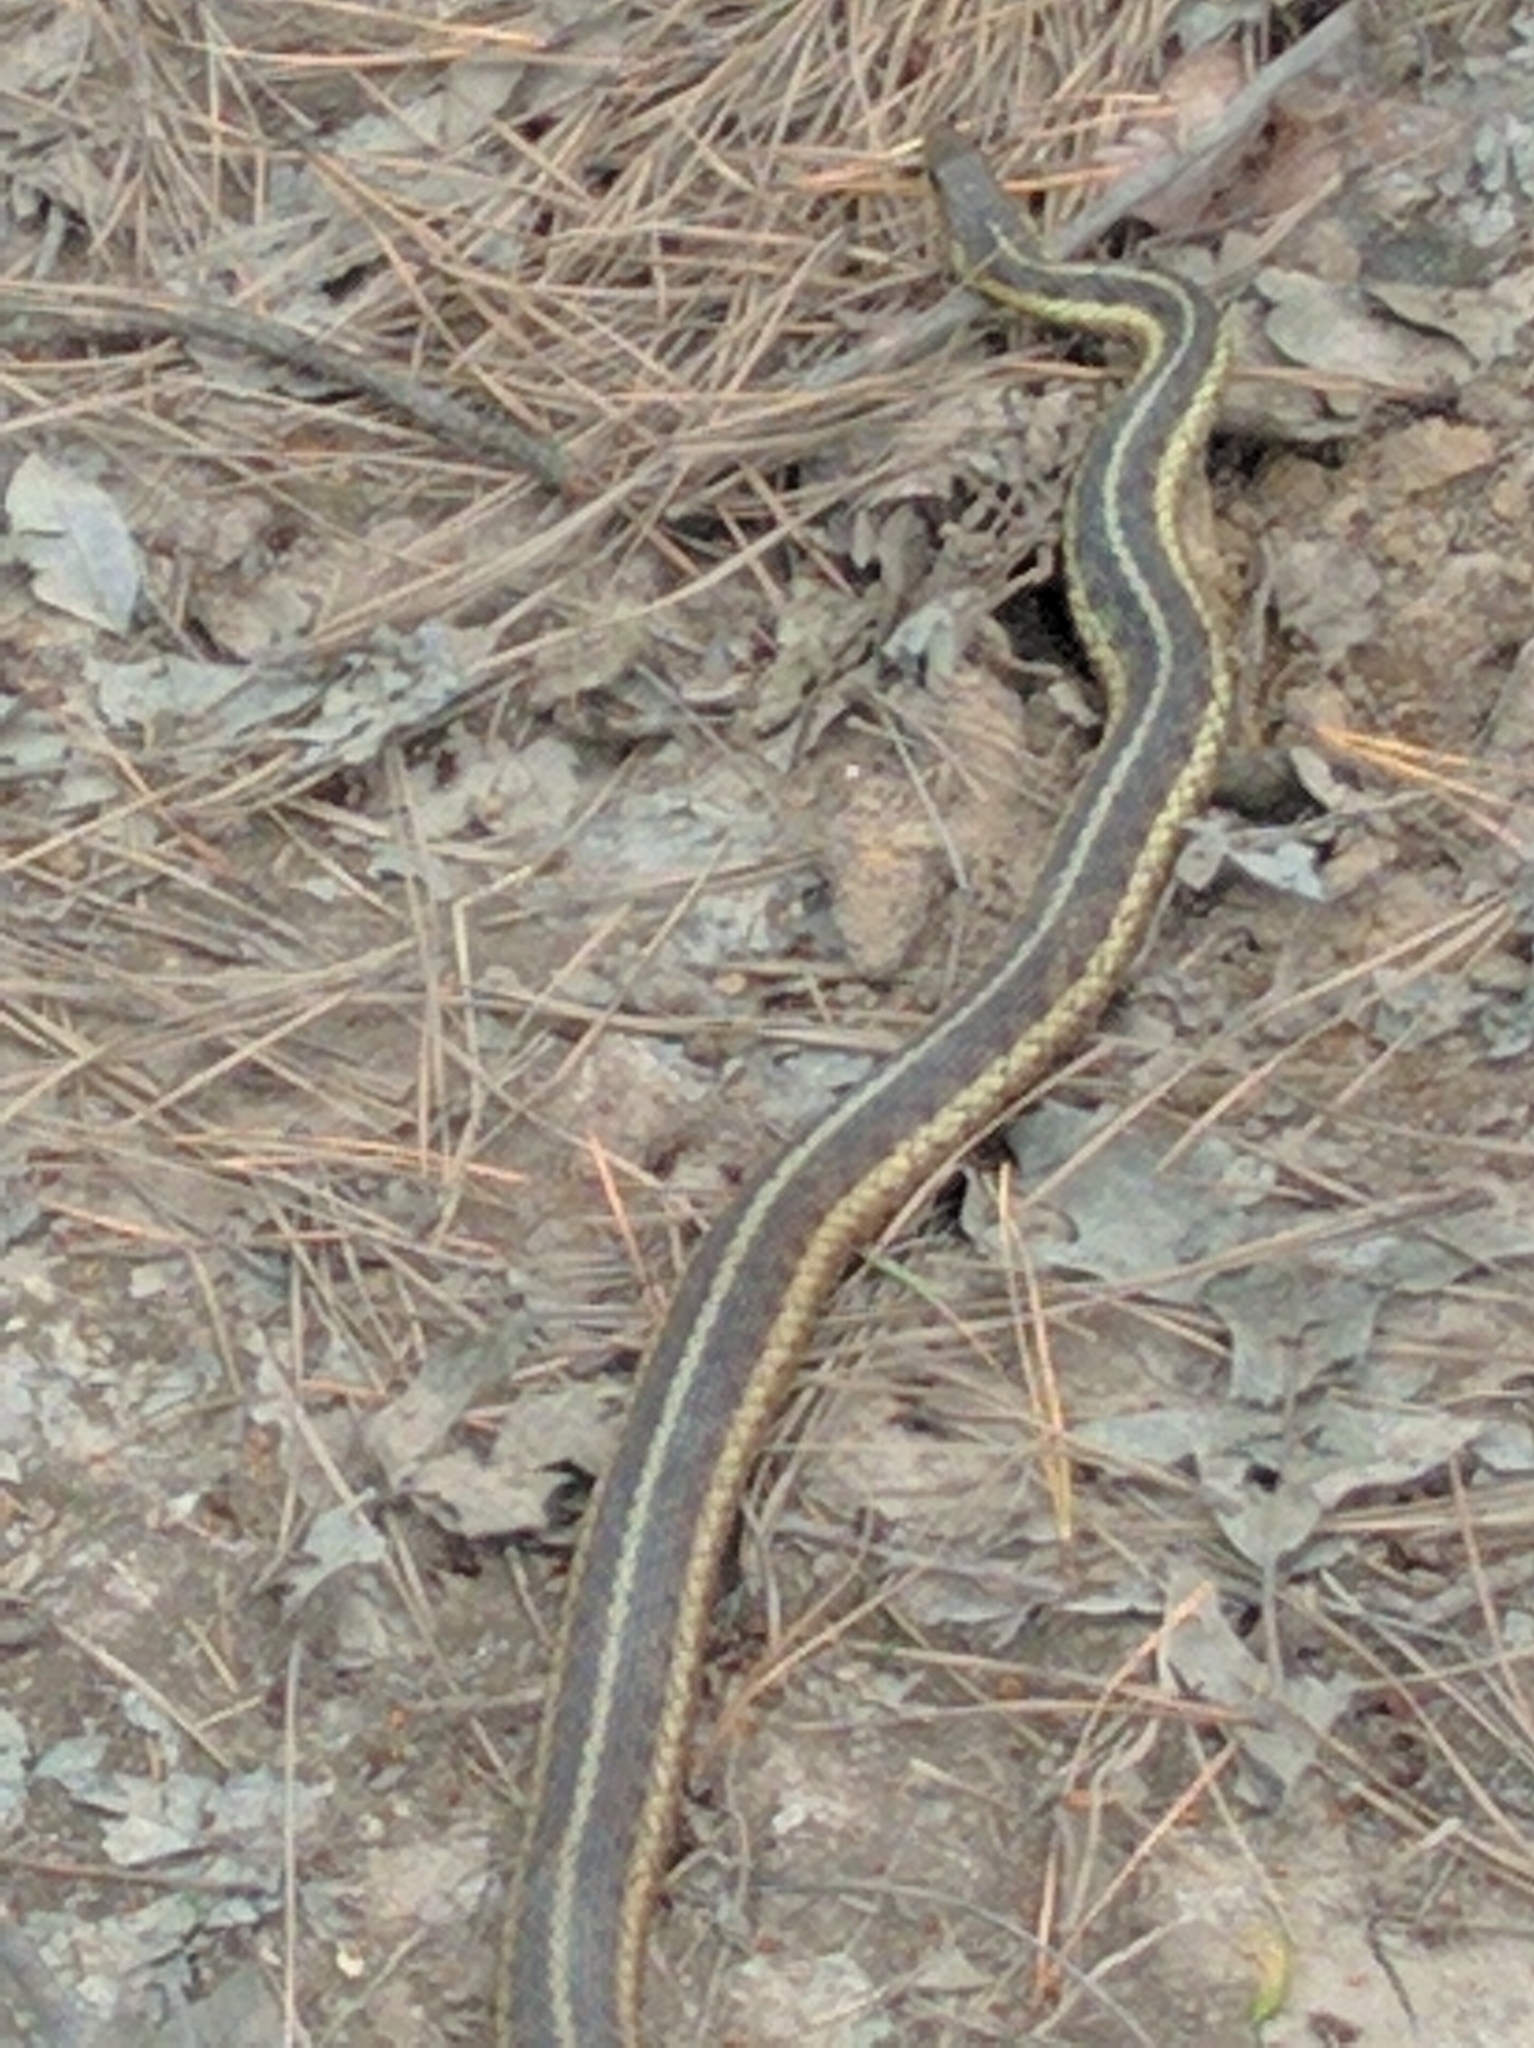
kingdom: Animalia
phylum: Chordata
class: Squamata
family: Colubridae
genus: Thamnophis
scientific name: Thamnophis sirtalis
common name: Common garter snake
